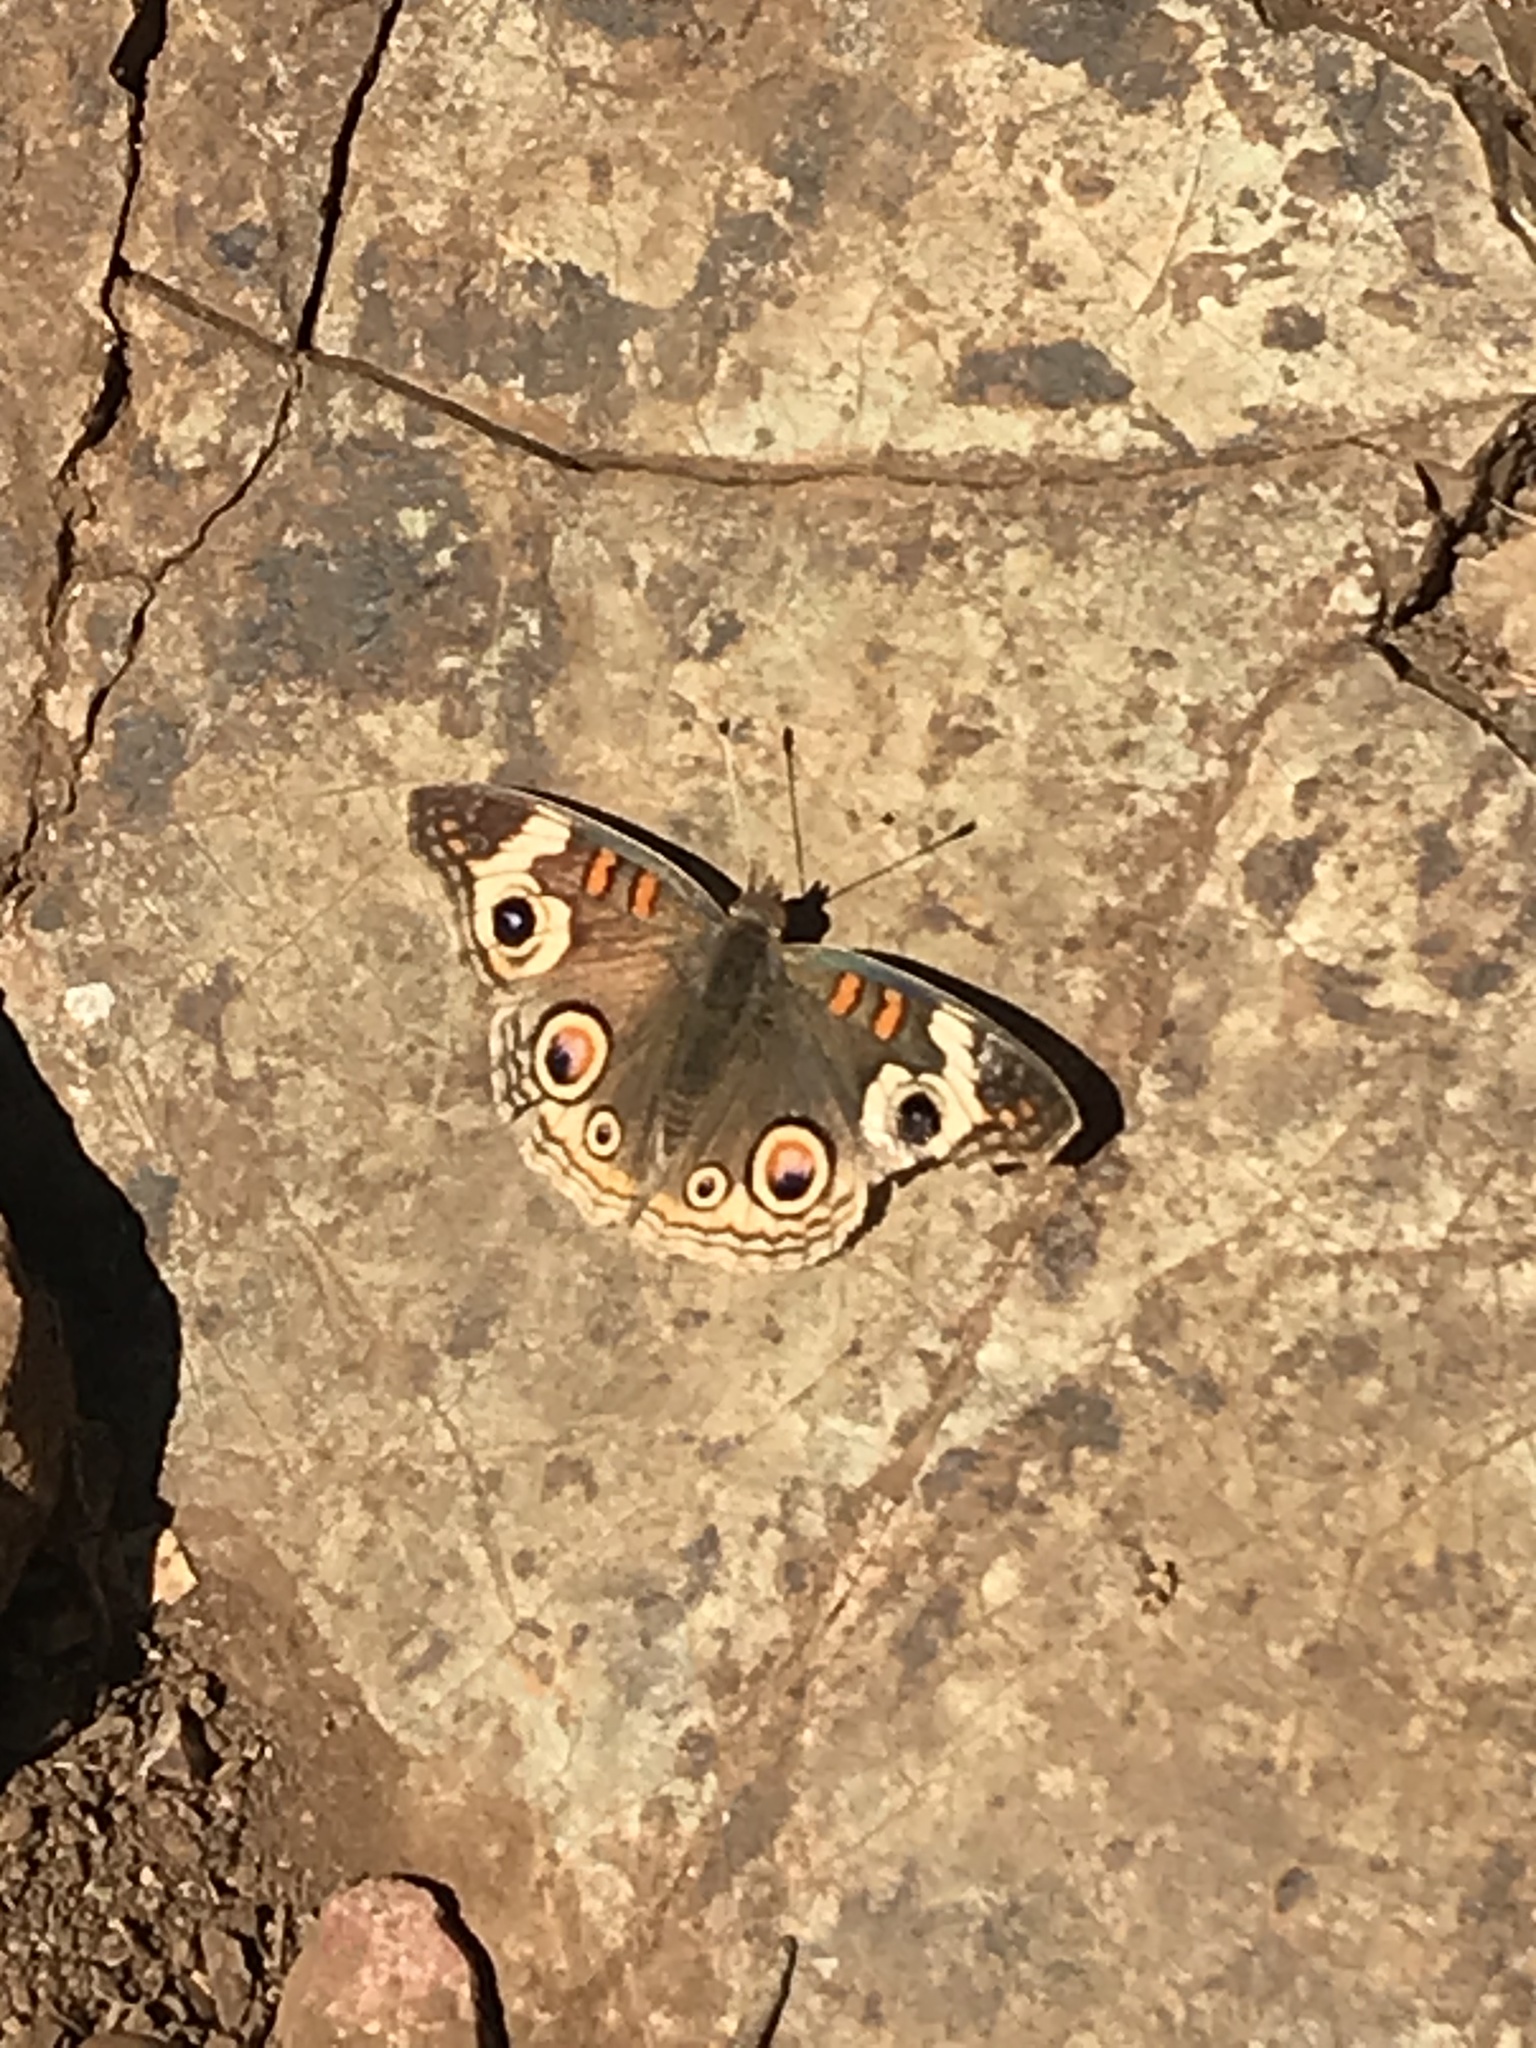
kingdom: Animalia
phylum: Arthropoda
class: Insecta
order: Lepidoptera
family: Nymphalidae
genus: Junonia
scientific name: Junonia grisea
